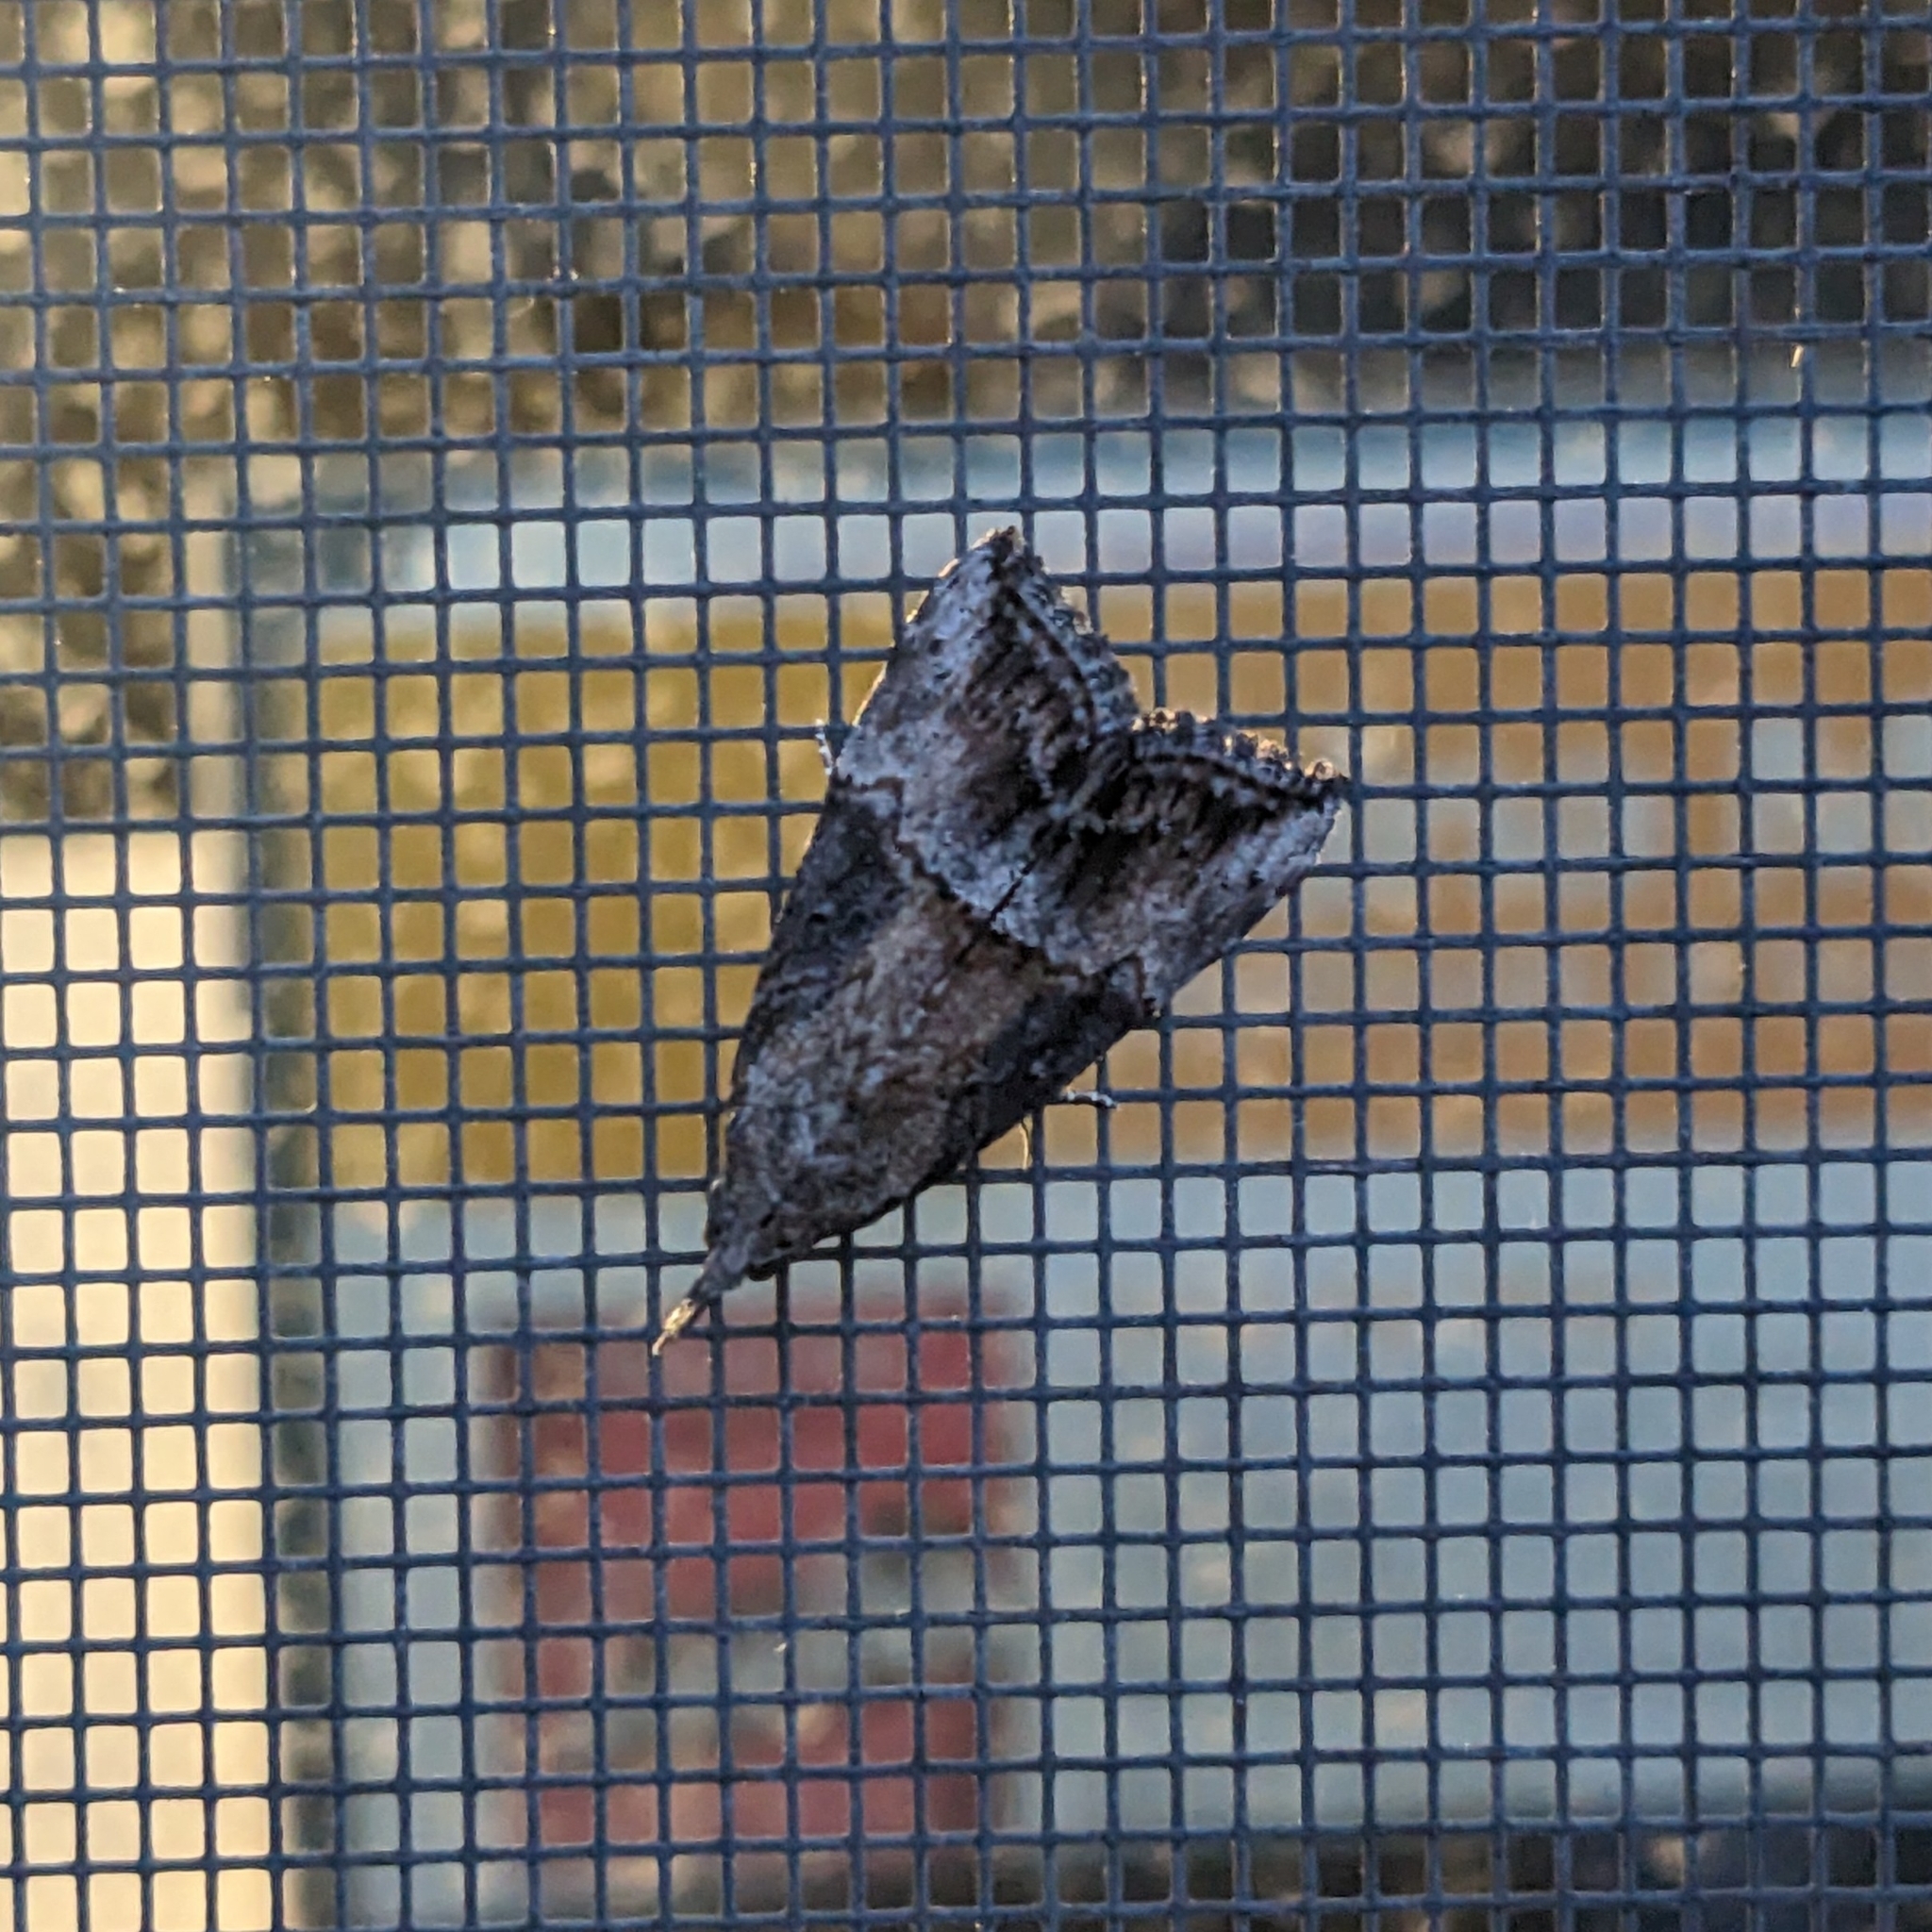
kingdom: Animalia
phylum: Arthropoda
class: Insecta
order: Lepidoptera
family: Erebidae
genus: Hypena
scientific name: Hypena scabra
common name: Green cloverworm
